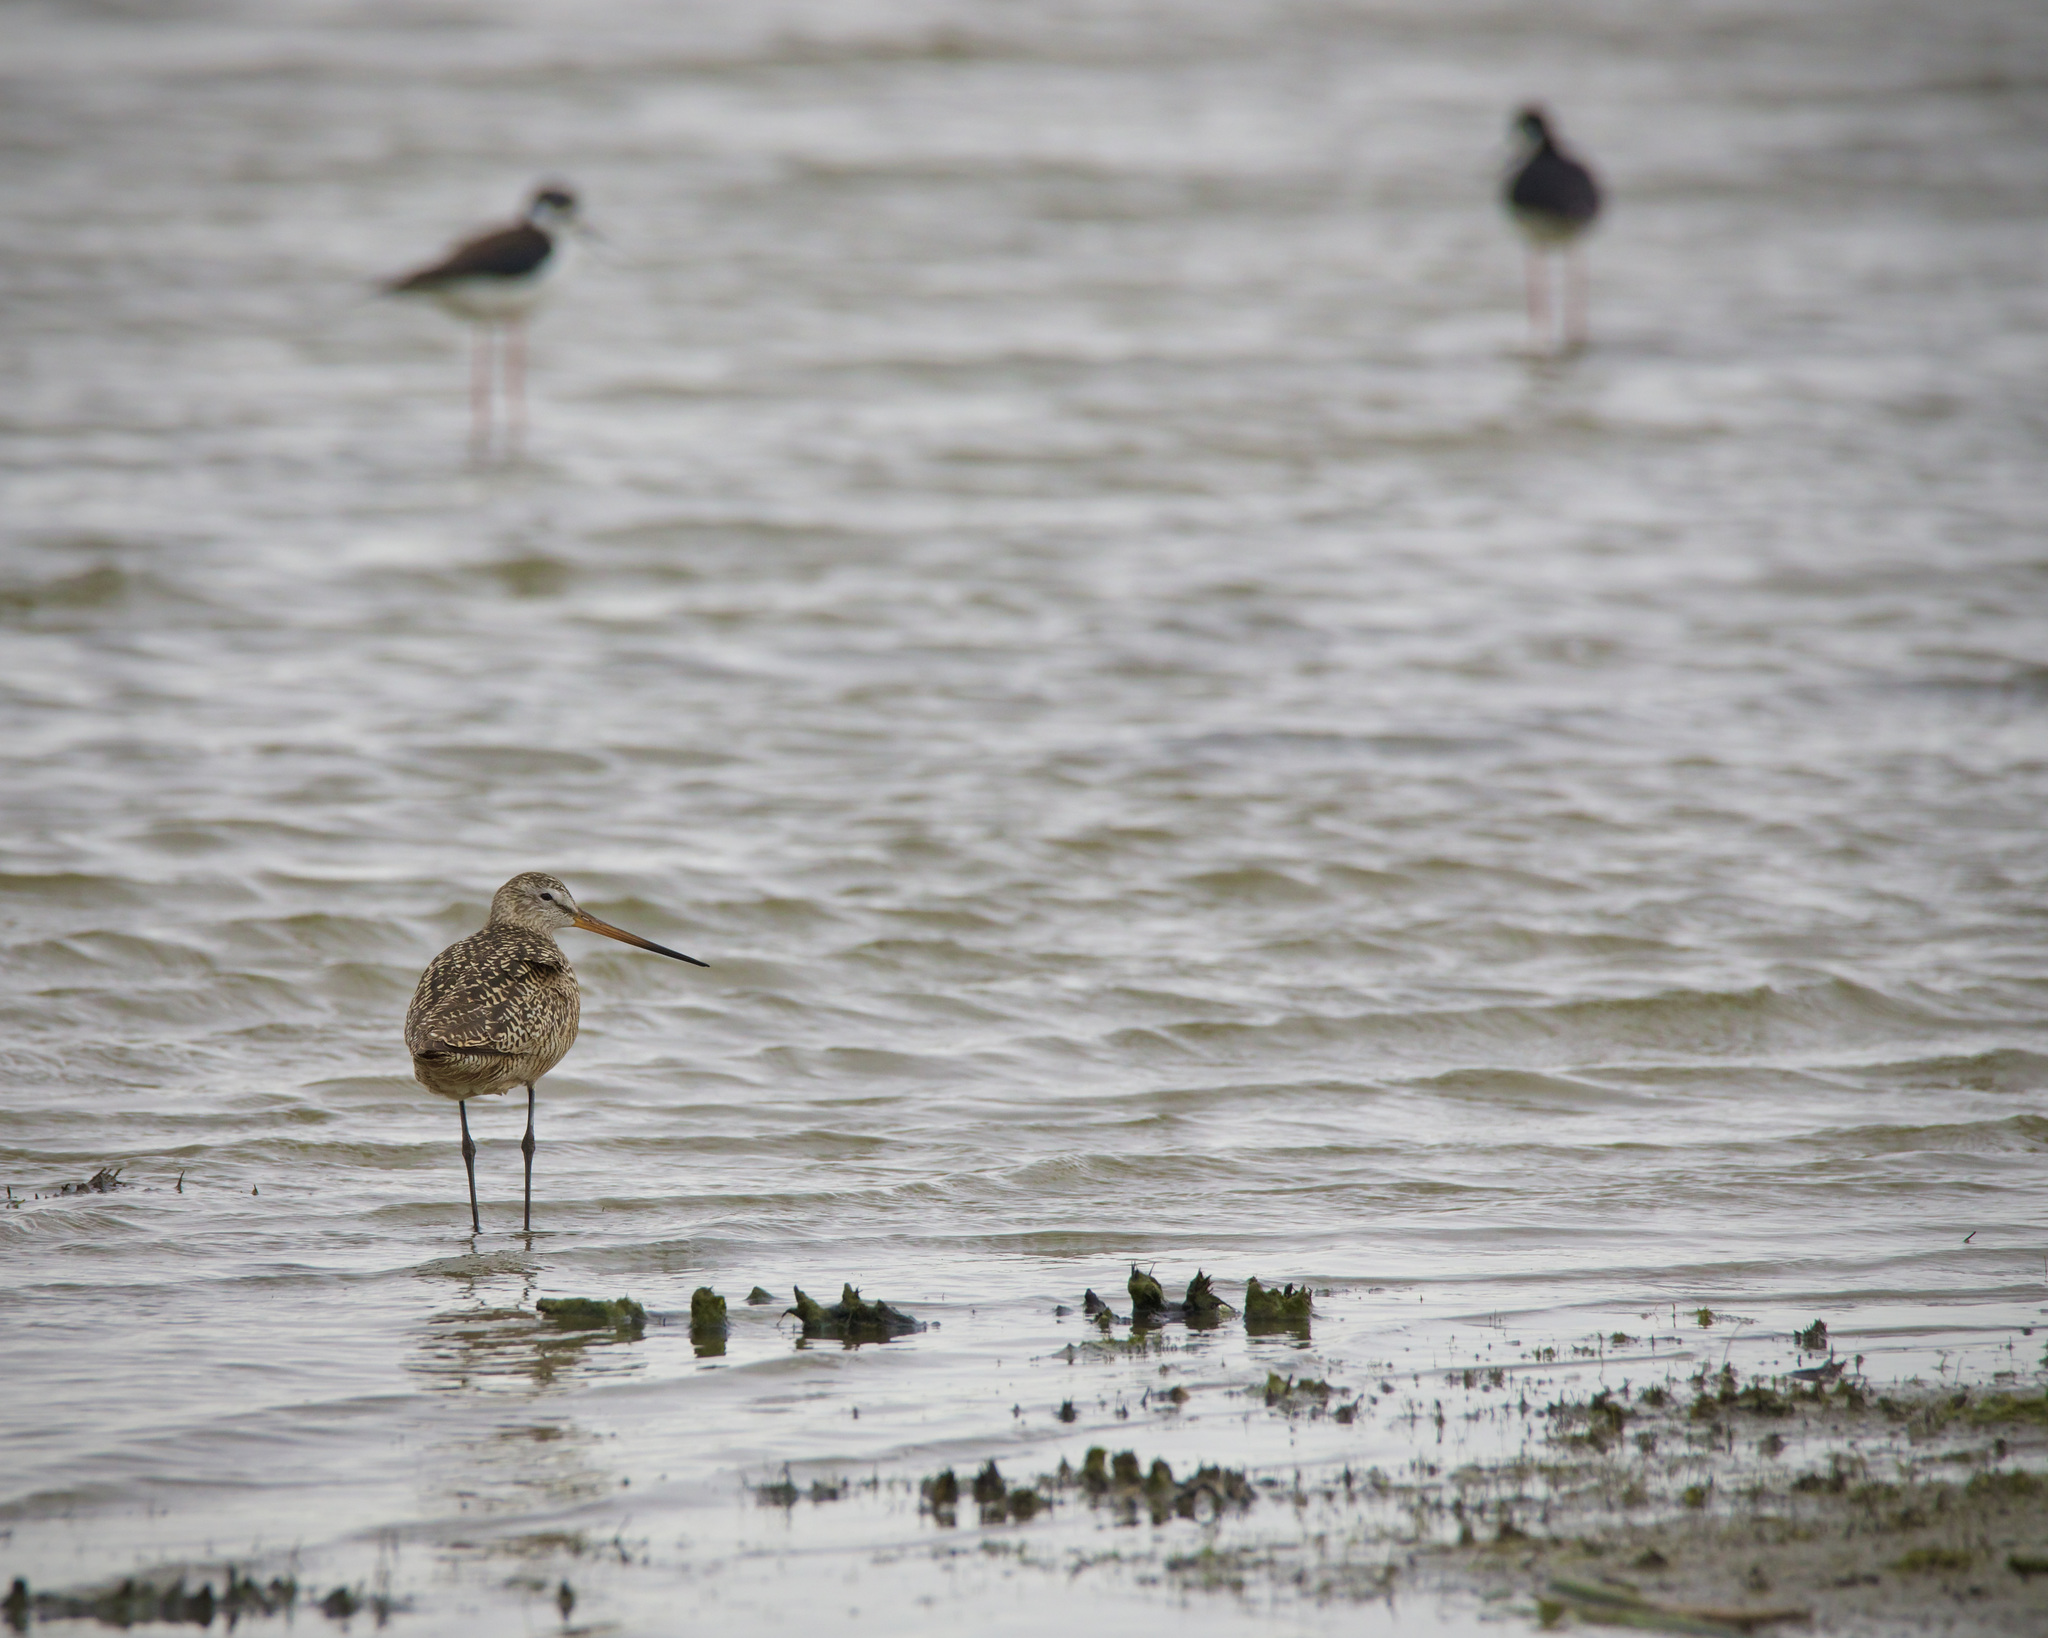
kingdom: Animalia
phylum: Chordata
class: Aves
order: Charadriiformes
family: Scolopacidae
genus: Limosa
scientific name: Limosa fedoa
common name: Marbled godwit
